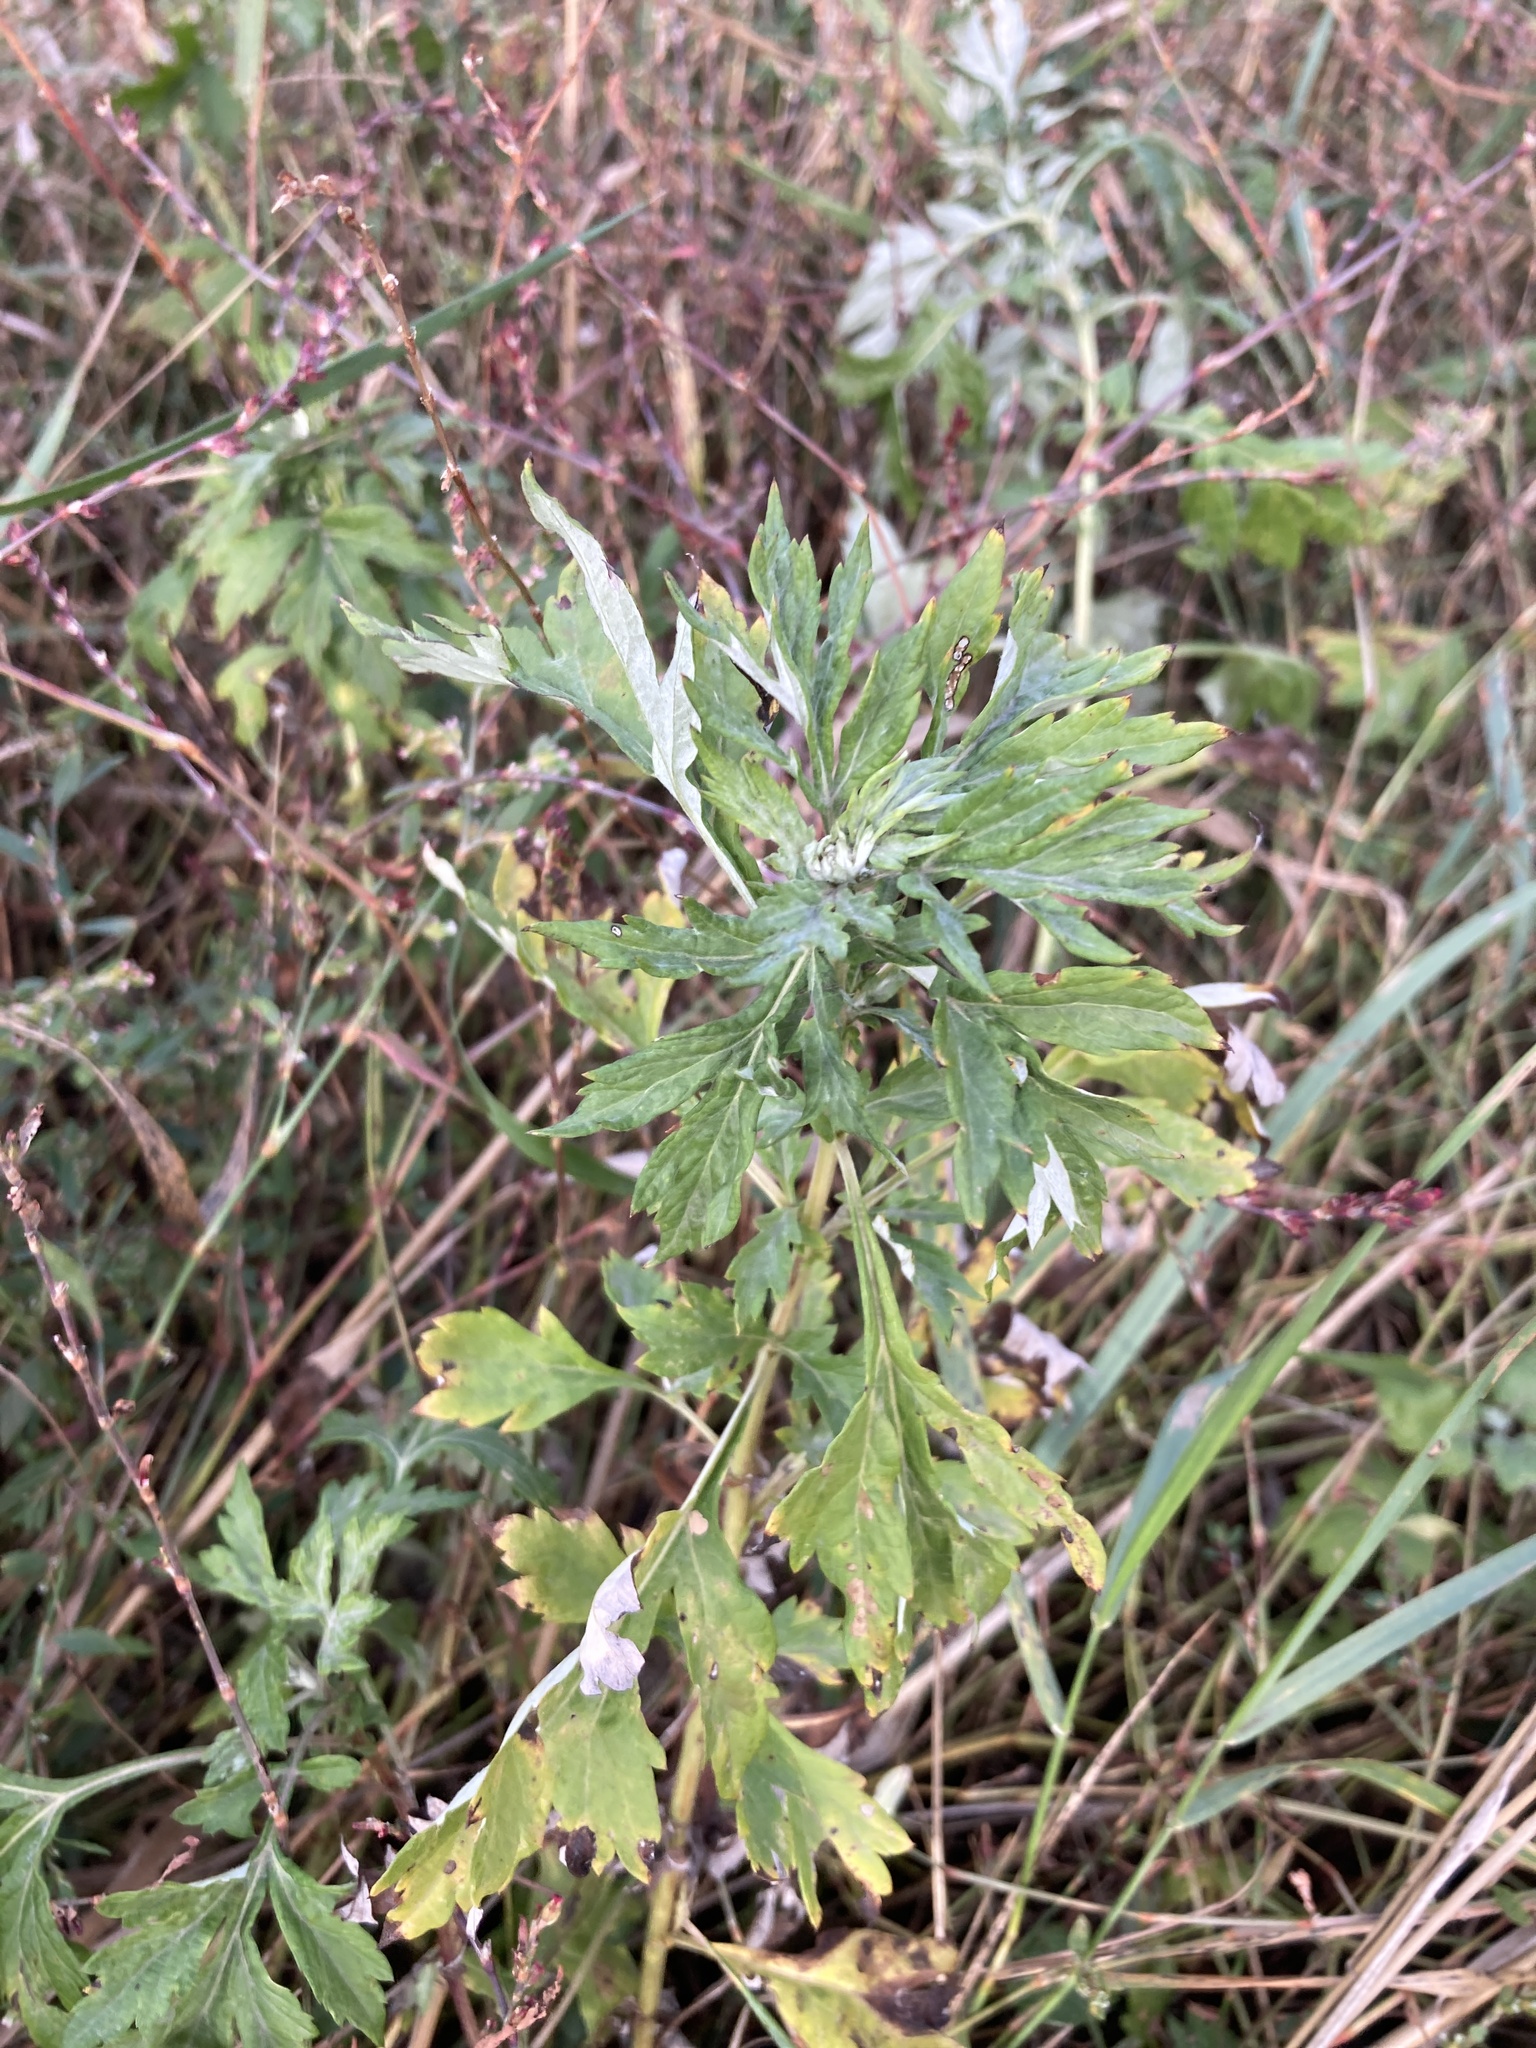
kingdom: Plantae
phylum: Tracheophyta
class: Magnoliopsida
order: Asterales
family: Asteraceae
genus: Artemisia
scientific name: Artemisia vulgaris
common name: Mugwort
